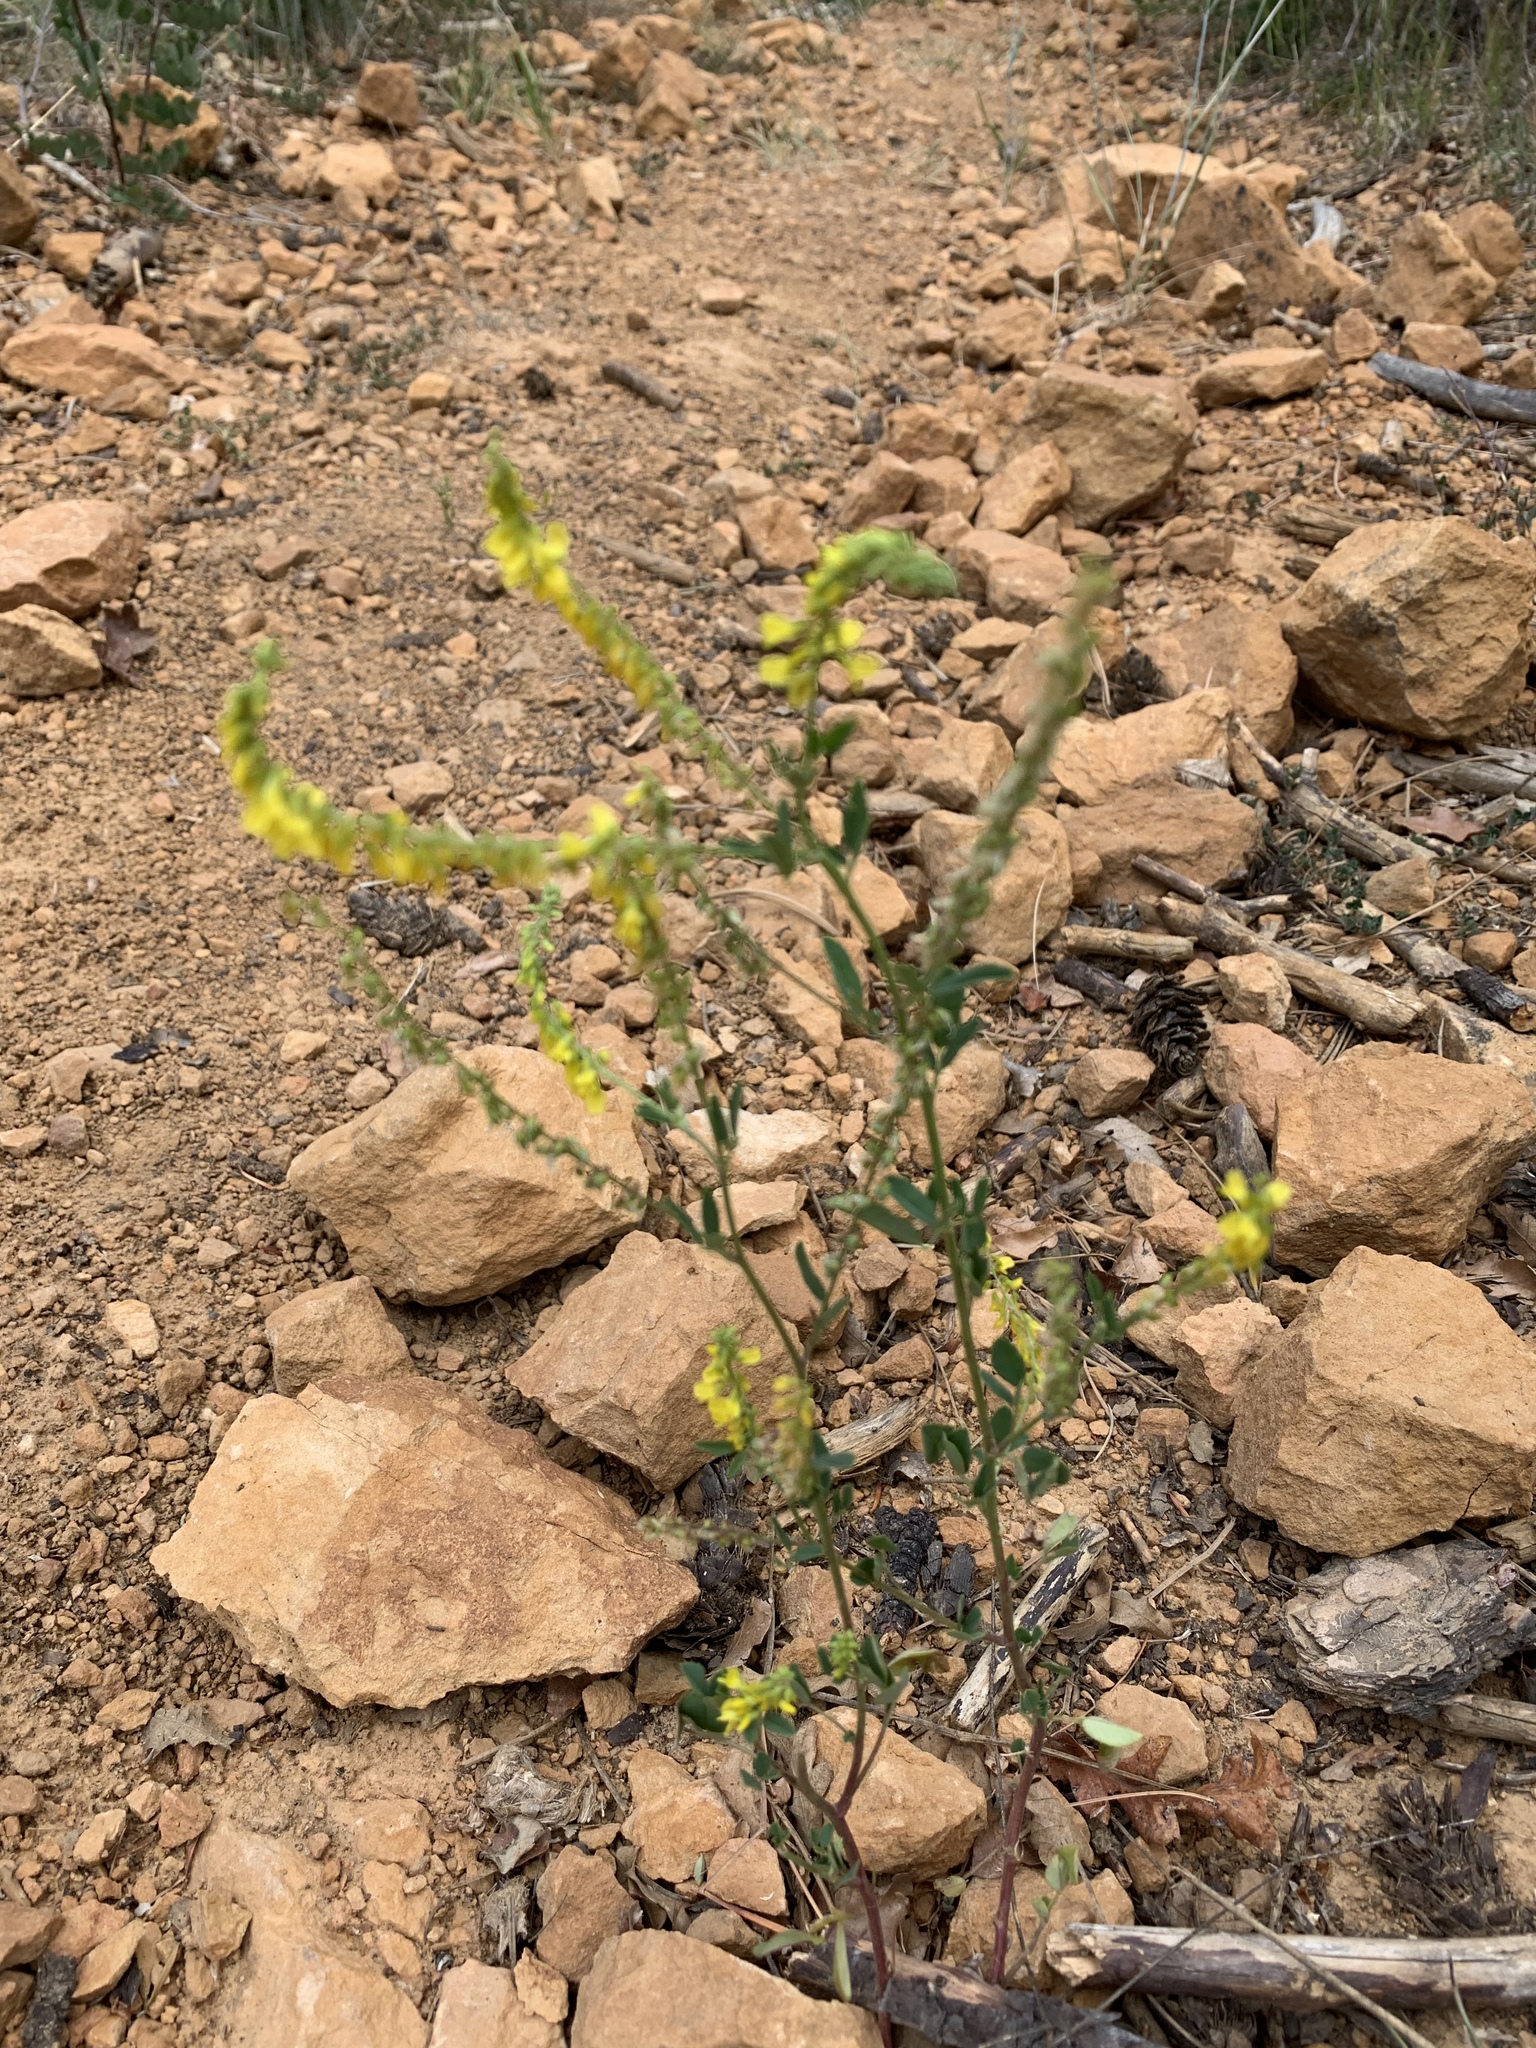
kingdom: Plantae
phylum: Tracheophyta
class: Magnoliopsida
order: Fabales
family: Fabaceae
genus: Melilotus
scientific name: Melilotus officinalis
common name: Sweetclover
